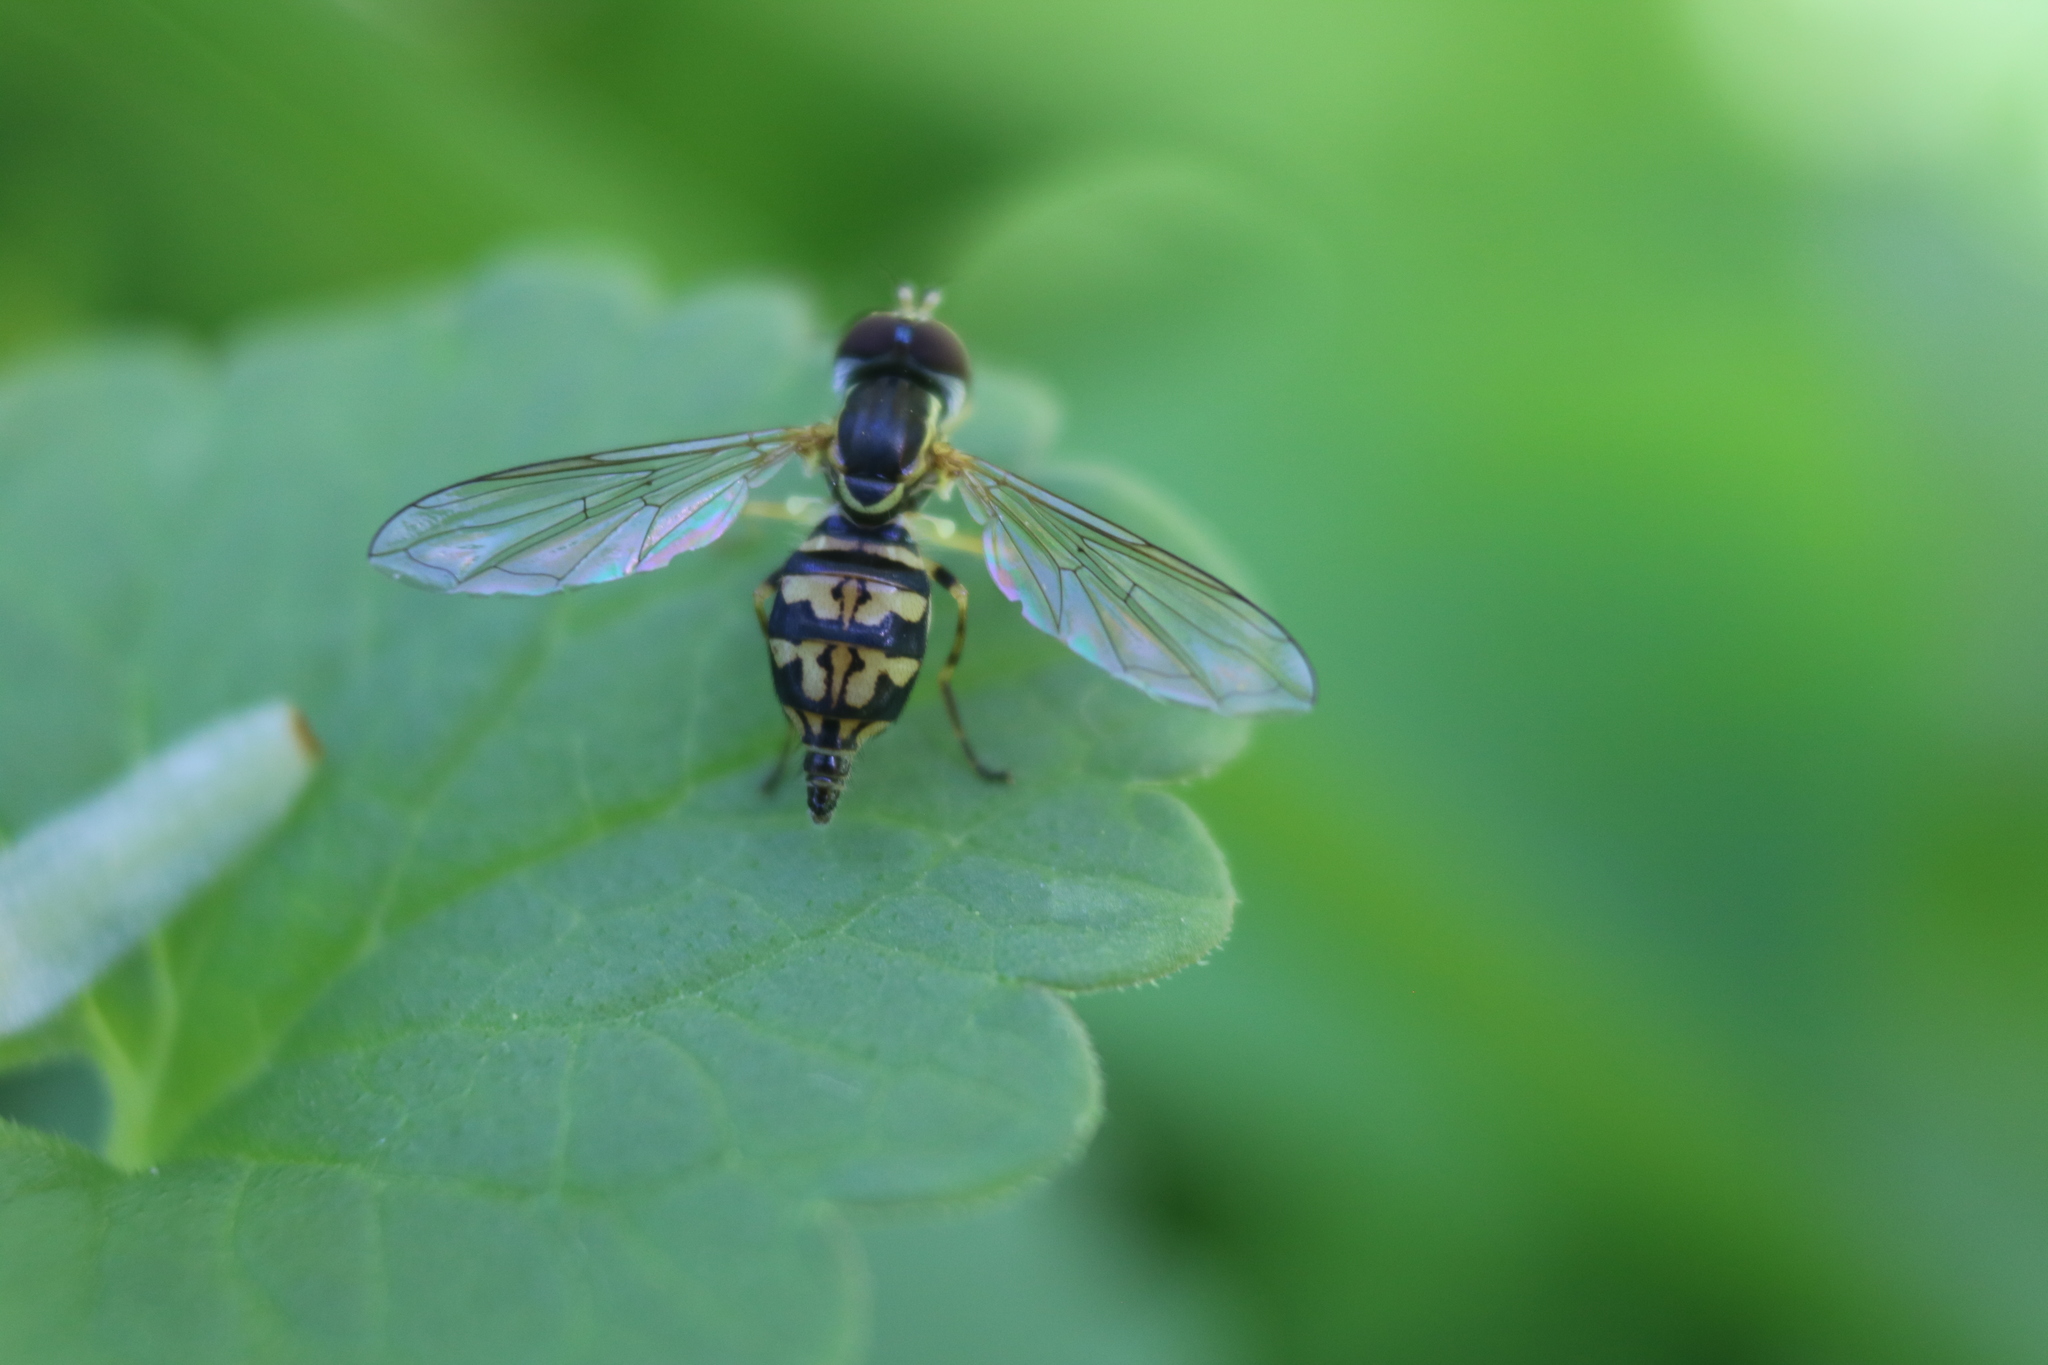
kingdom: Animalia
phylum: Arthropoda
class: Insecta
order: Diptera
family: Syrphidae
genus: Toxomerus
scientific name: Toxomerus geminatus
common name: Eastern calligrapher
